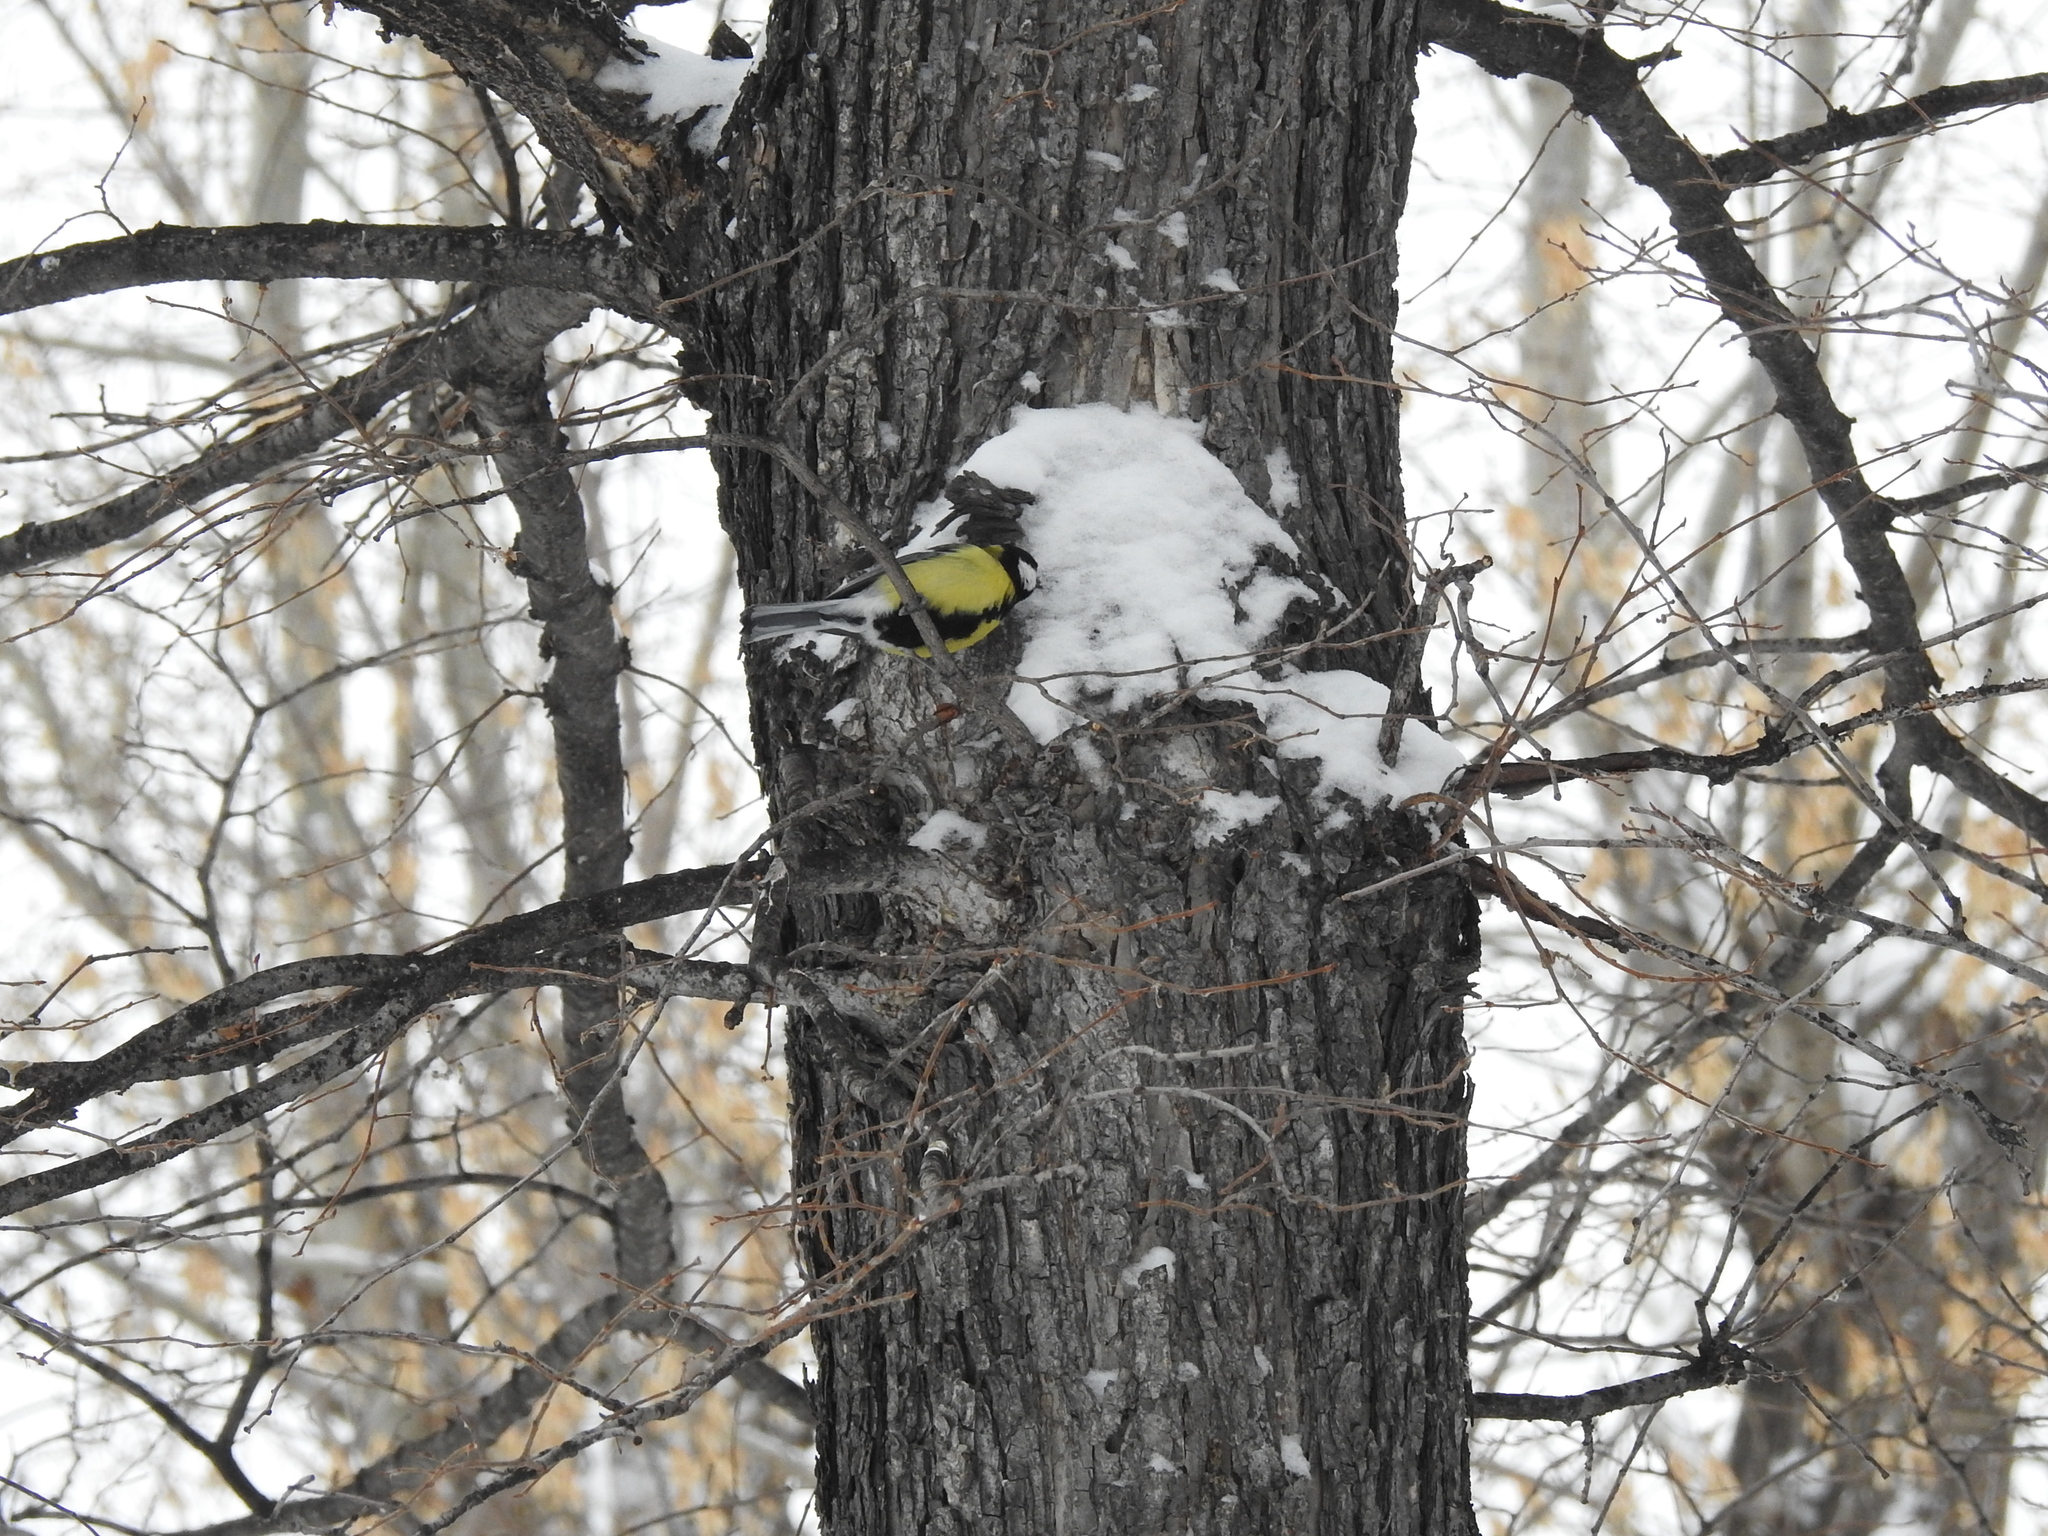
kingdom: Animalia
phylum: Chordata
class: Aves
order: Passeriformes
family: Paridae
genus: Parus
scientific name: Parus major
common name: Great tit
